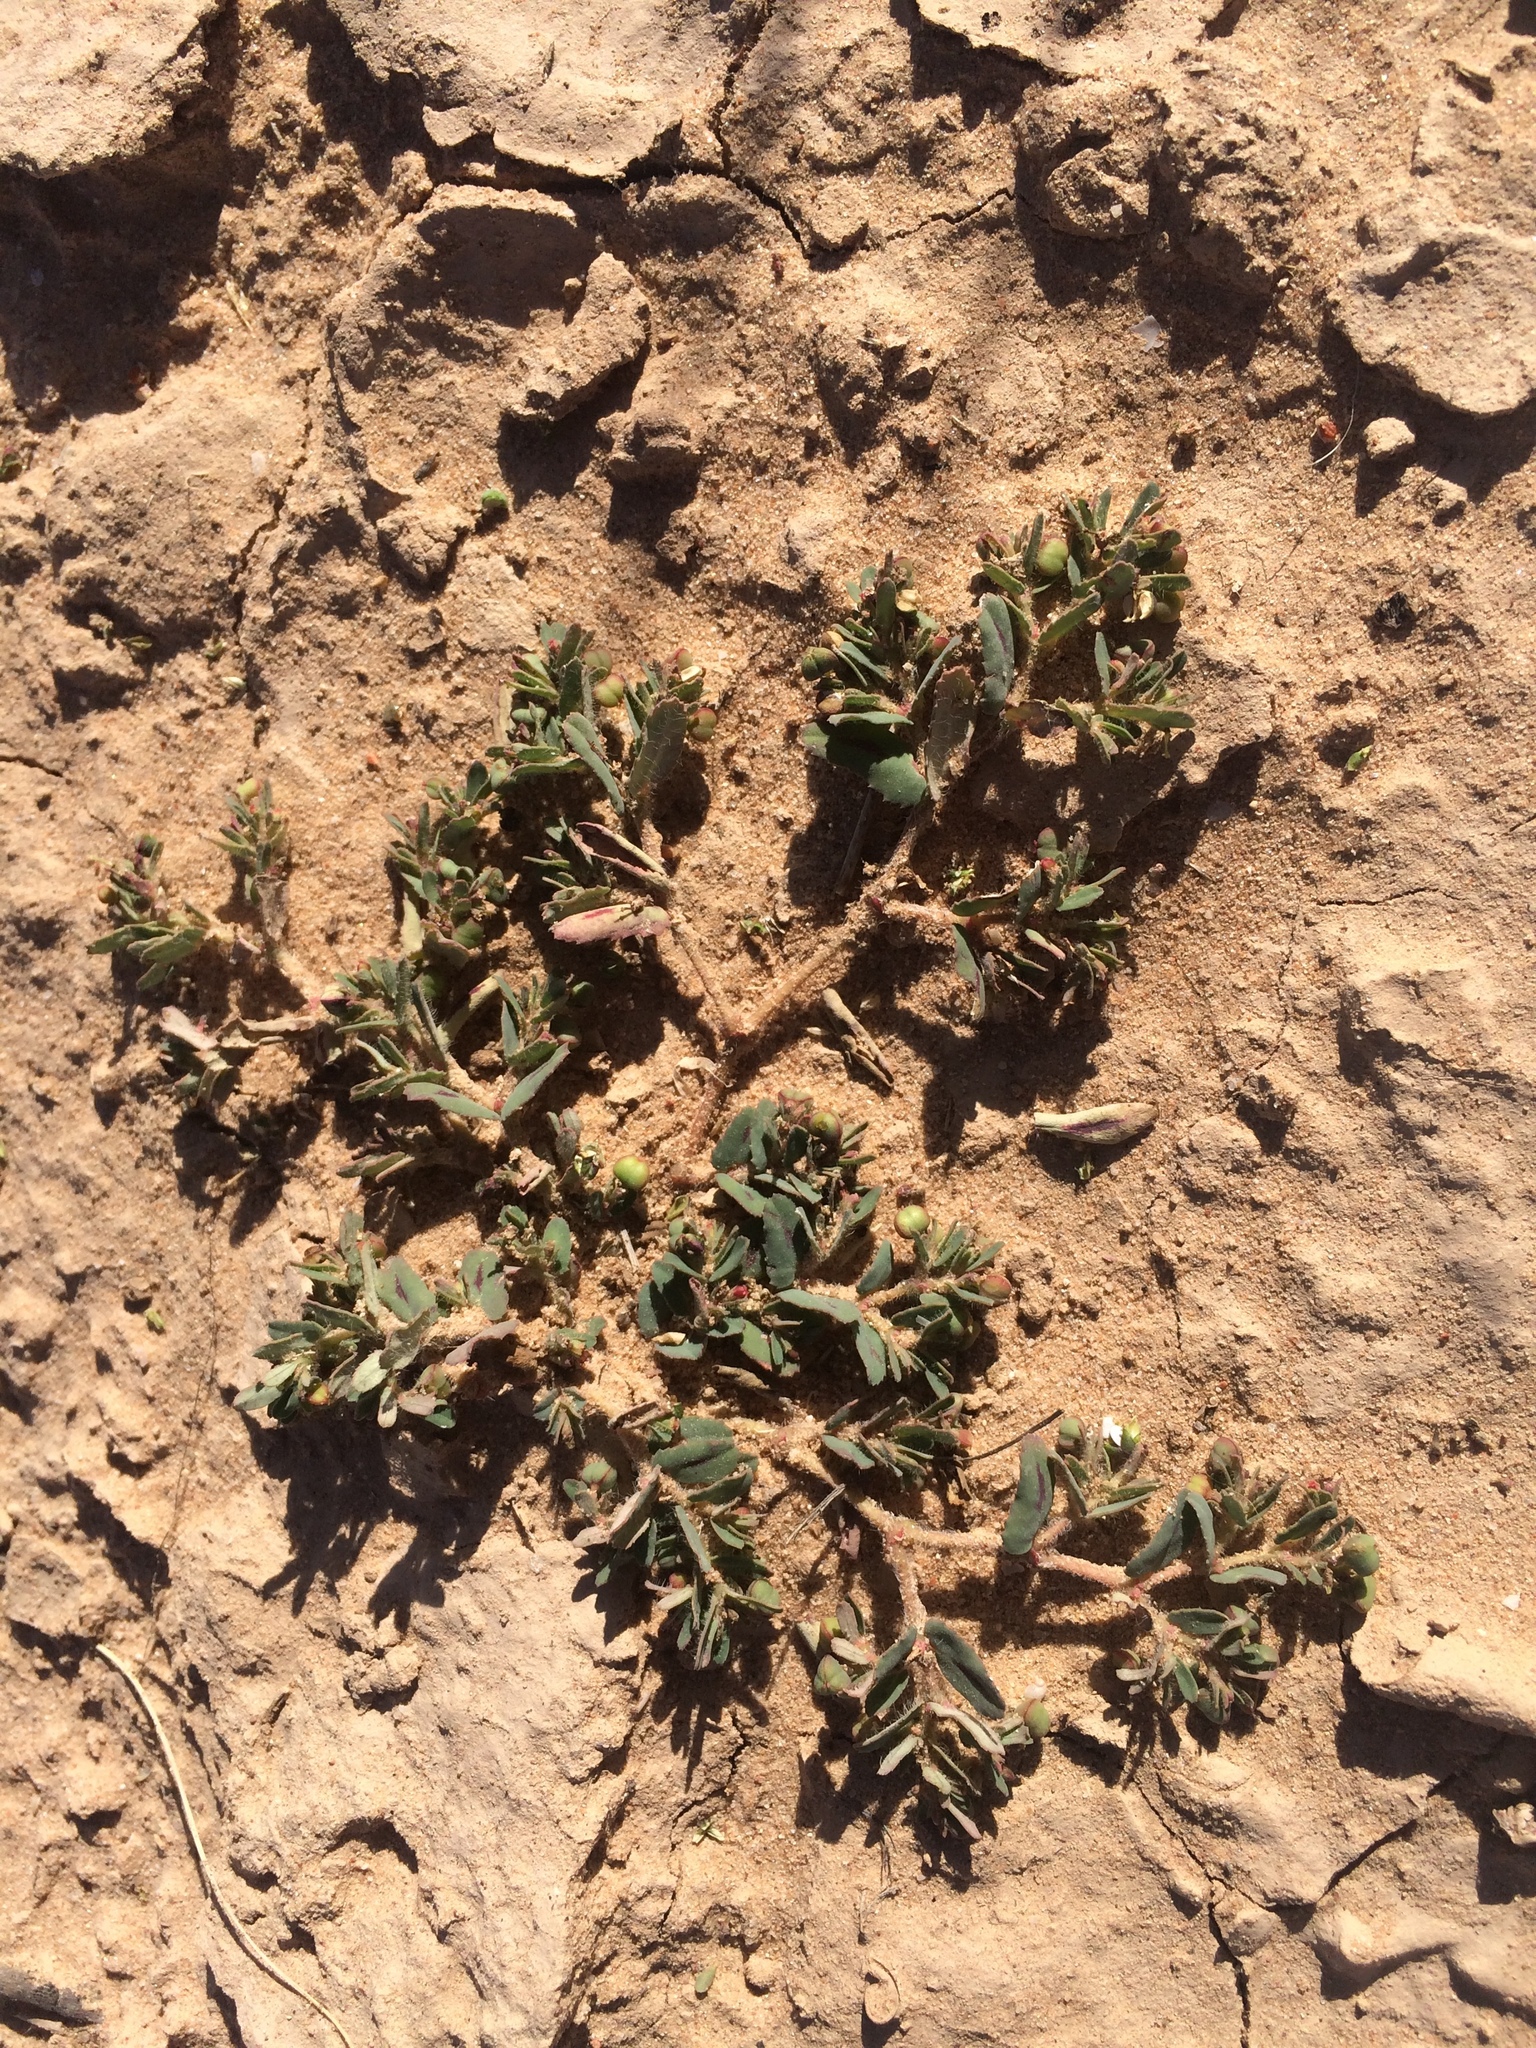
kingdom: Plantae
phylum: Tracheophyta
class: Magnoliopsida
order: Malpighiales
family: Euphorbiaceae
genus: Euphorbia
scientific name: Euphorbia serrula
